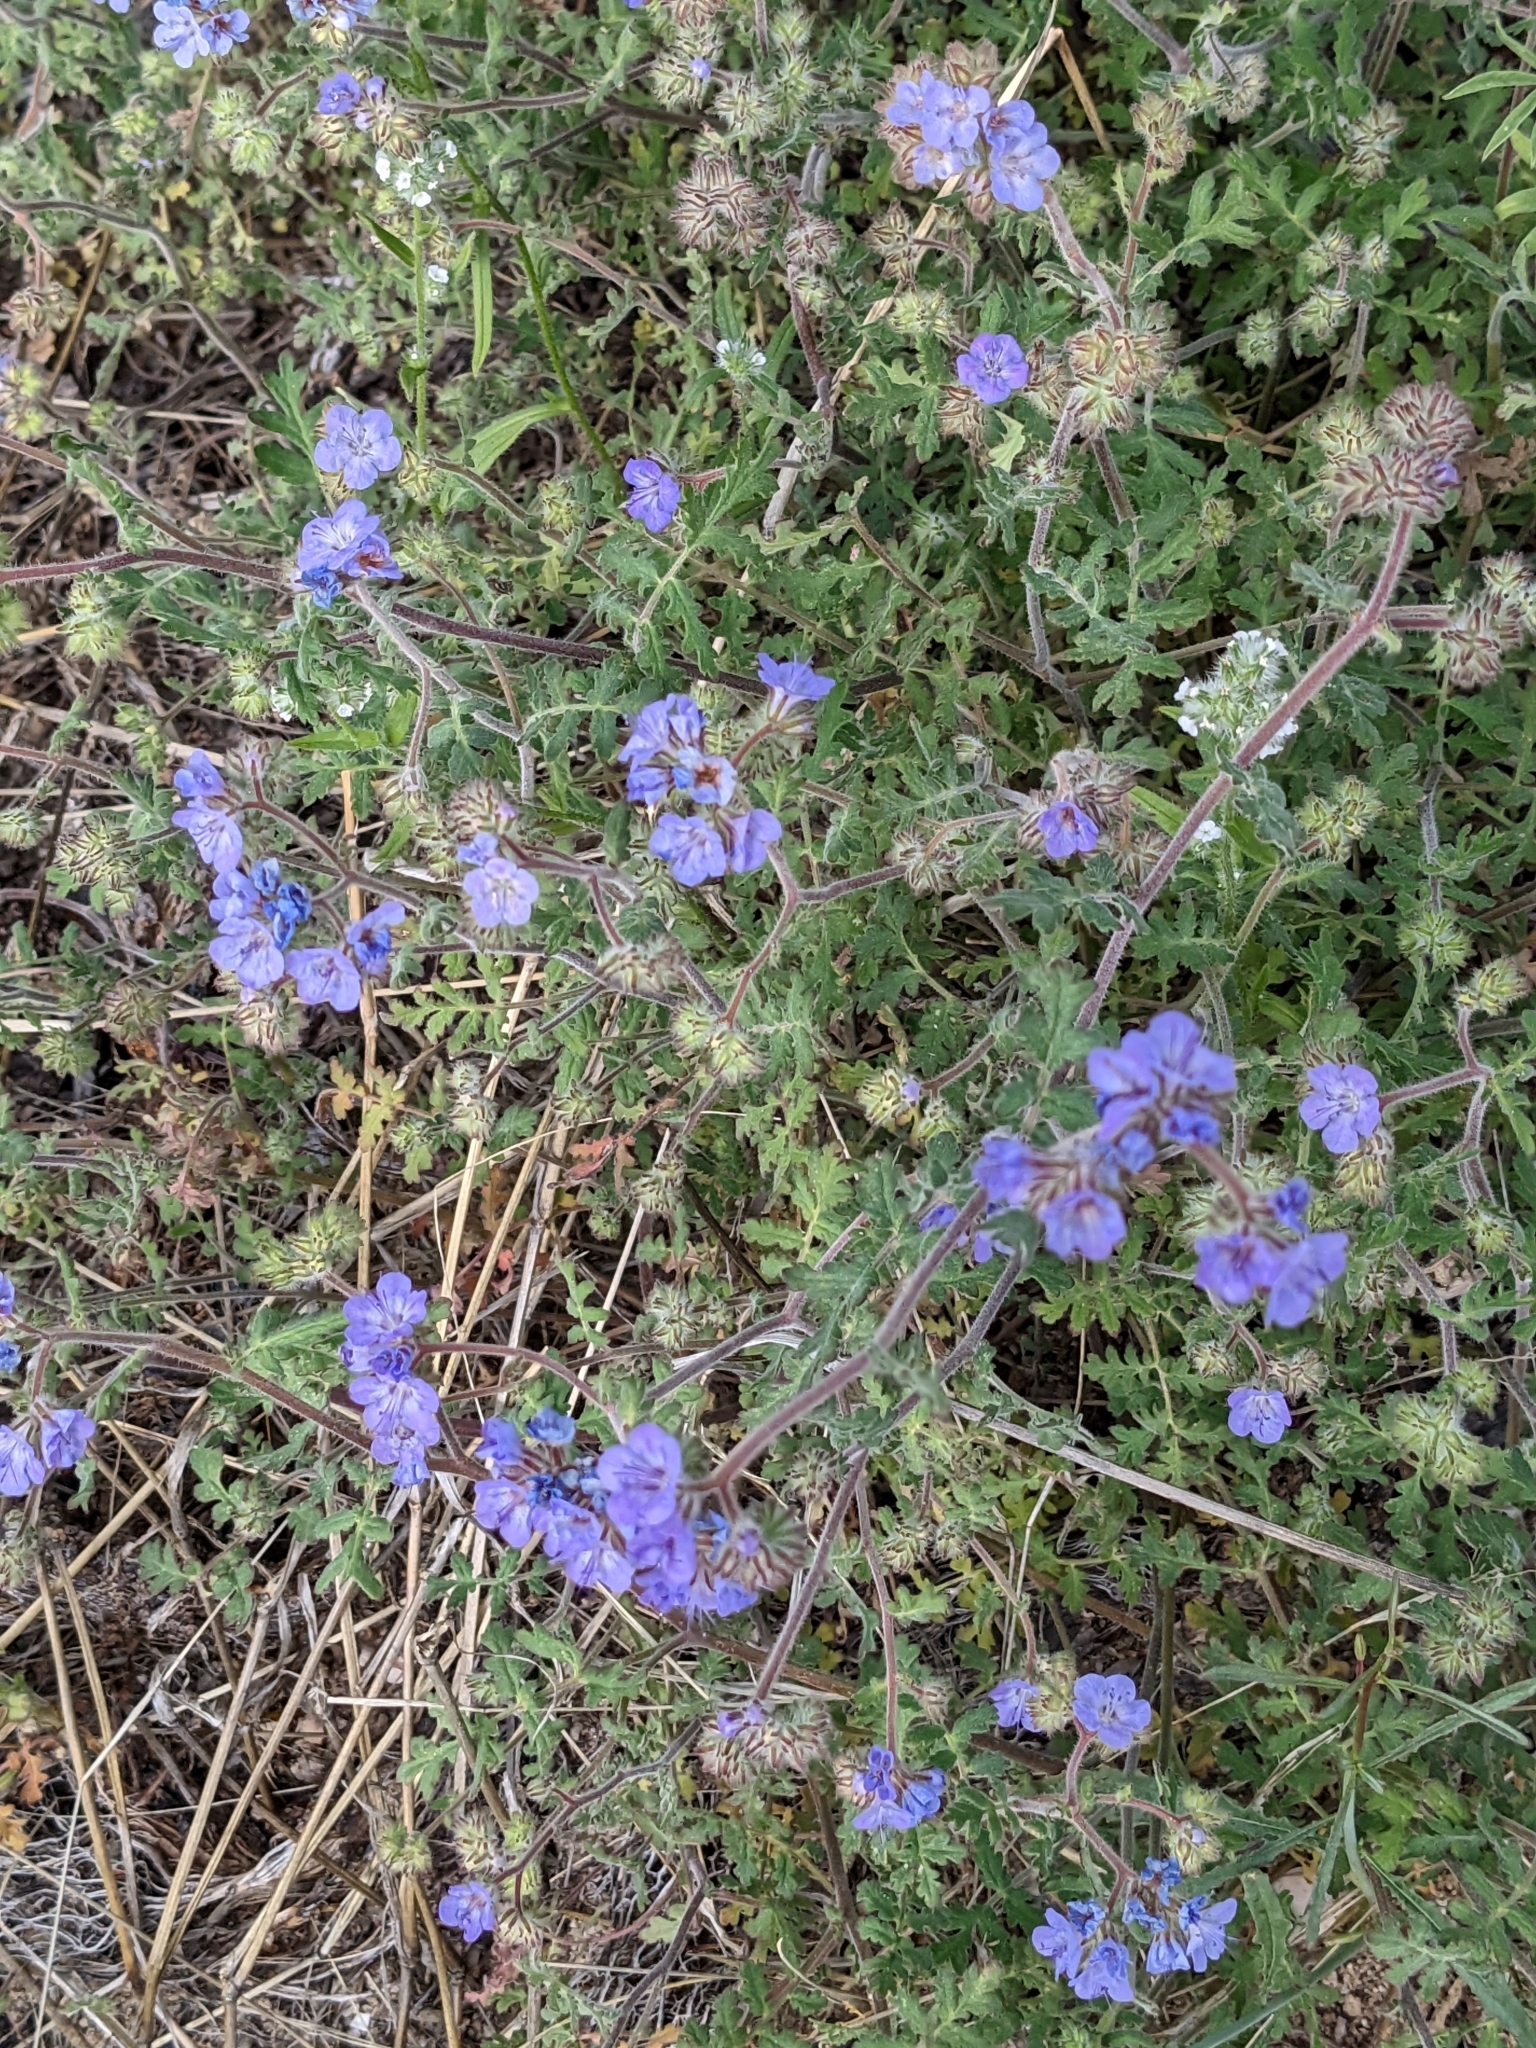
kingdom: Plantae
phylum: Tracheophyta
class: Magnoliopsida
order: Boraginales
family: Hydrophyllaceae
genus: Phacelia
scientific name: Phacelia distans
